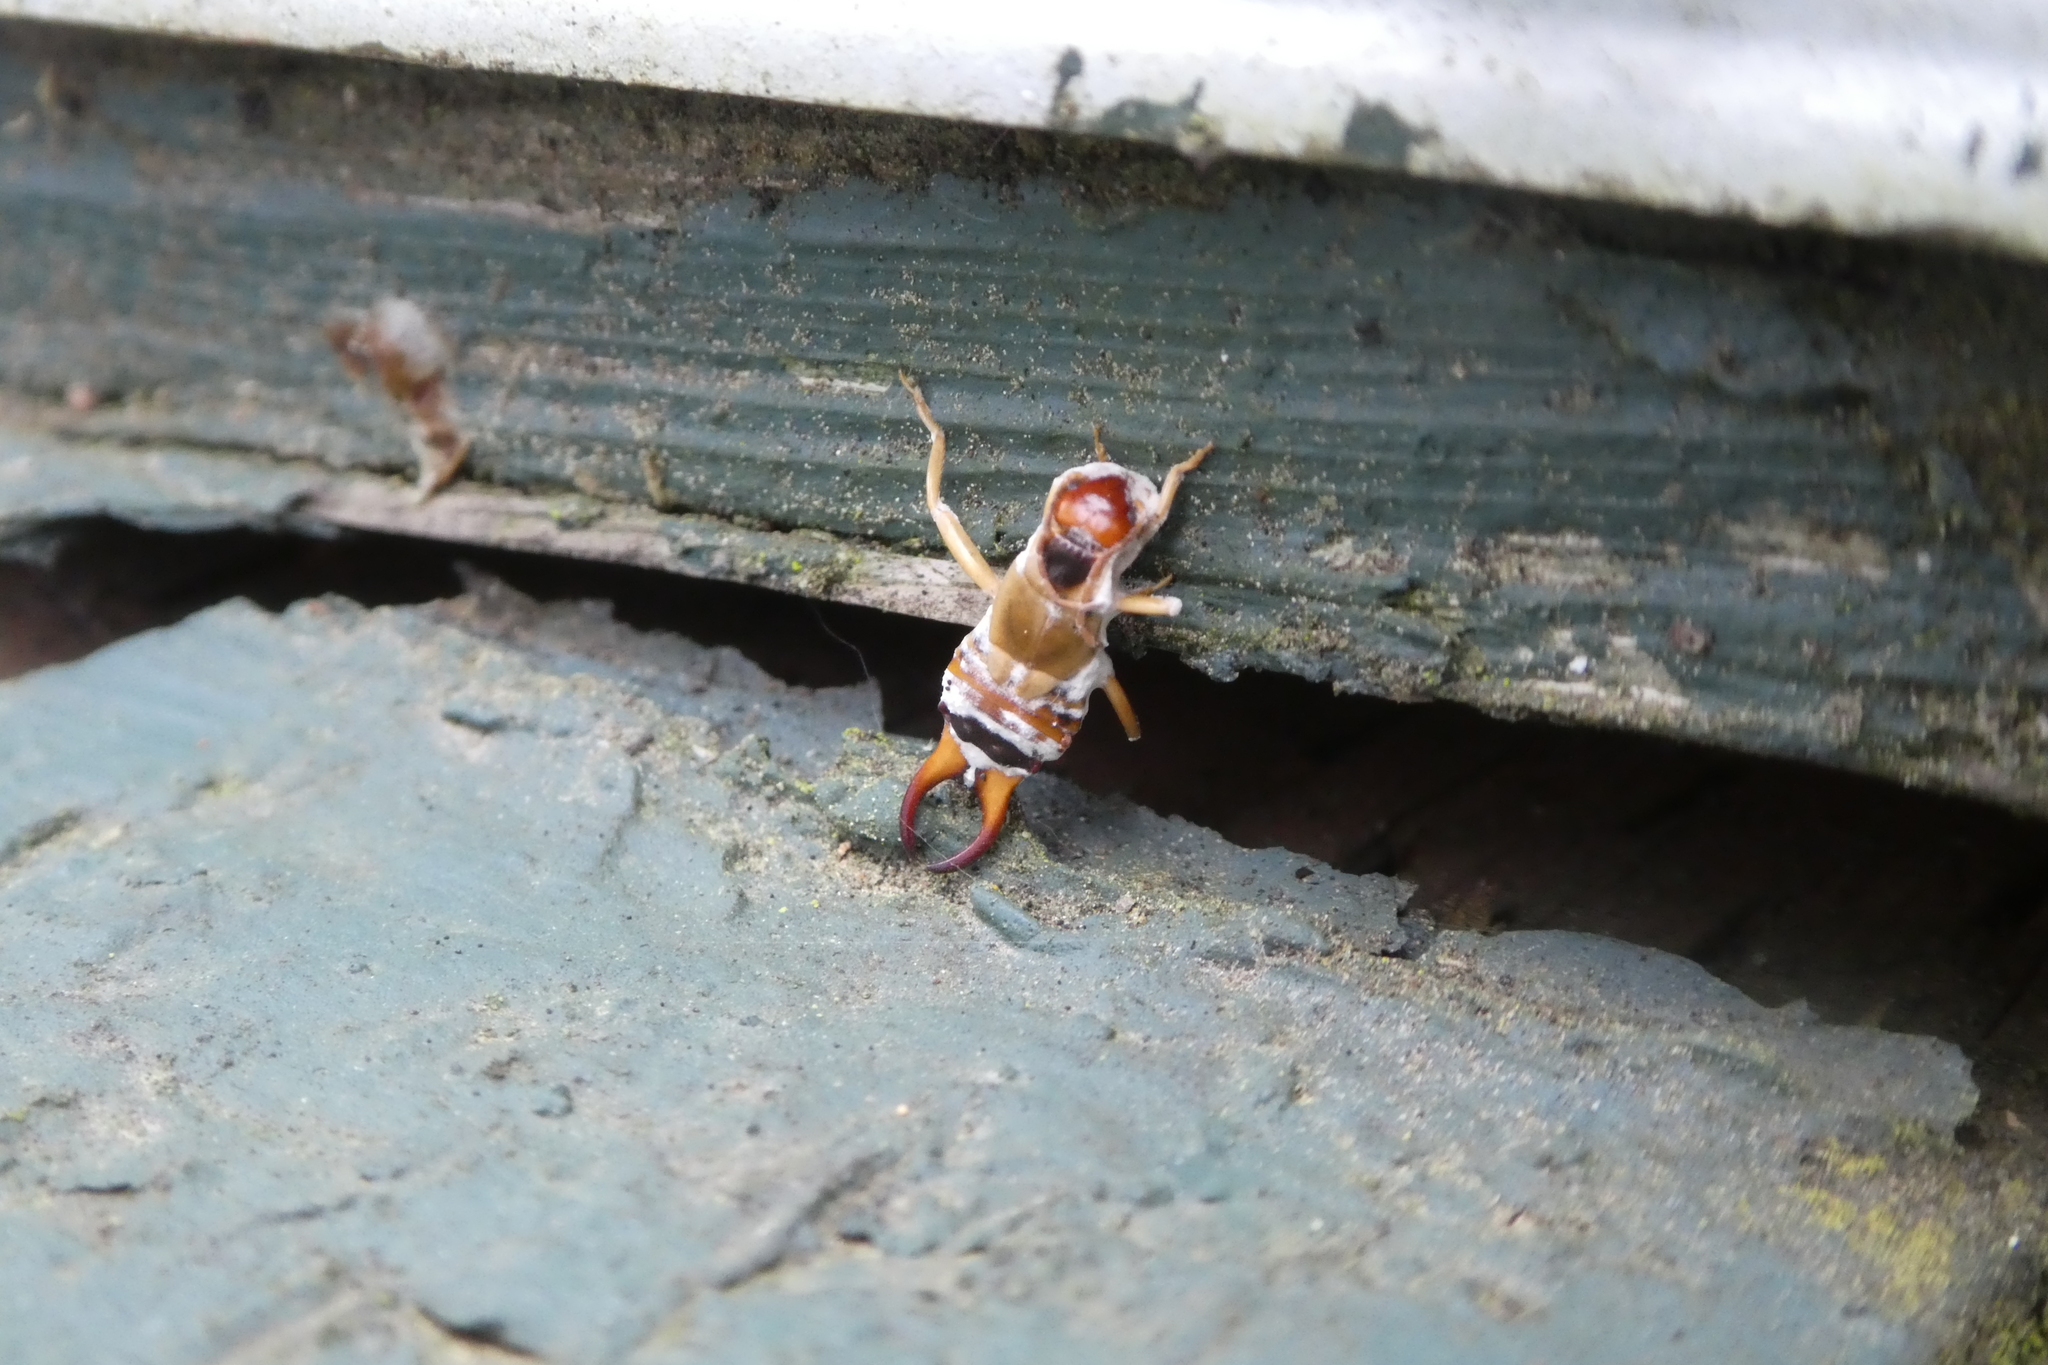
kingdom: Animalia
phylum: Arthropoda
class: Insecta
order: Dermaptera
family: Forficulidae
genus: Forficula
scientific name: Forficula
